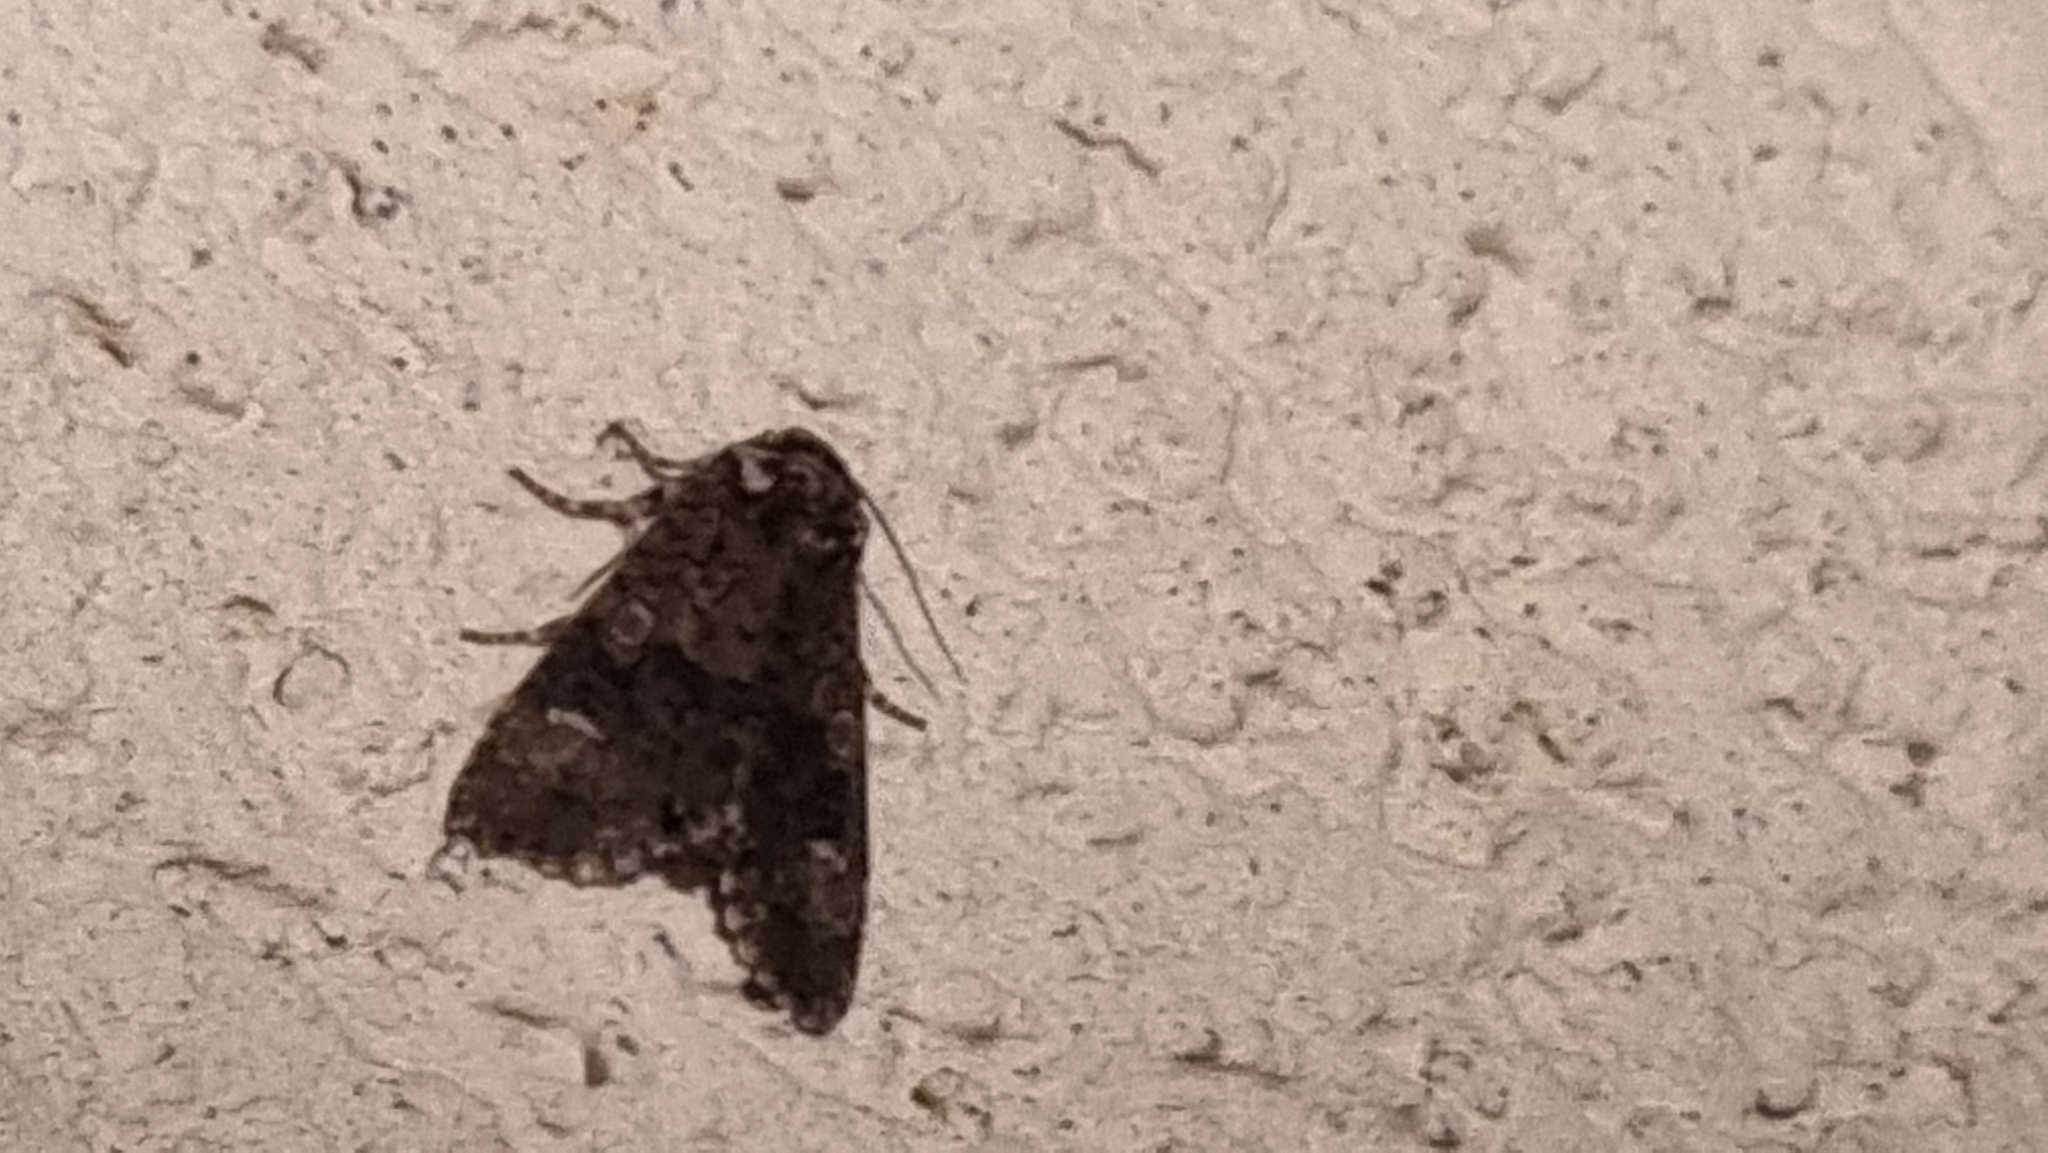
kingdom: Animalia
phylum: Arthropoda
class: Insecta
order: Lepidoptera
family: Noctuidae
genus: Craniophora
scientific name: Craniophora ligustri
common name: Coronet
